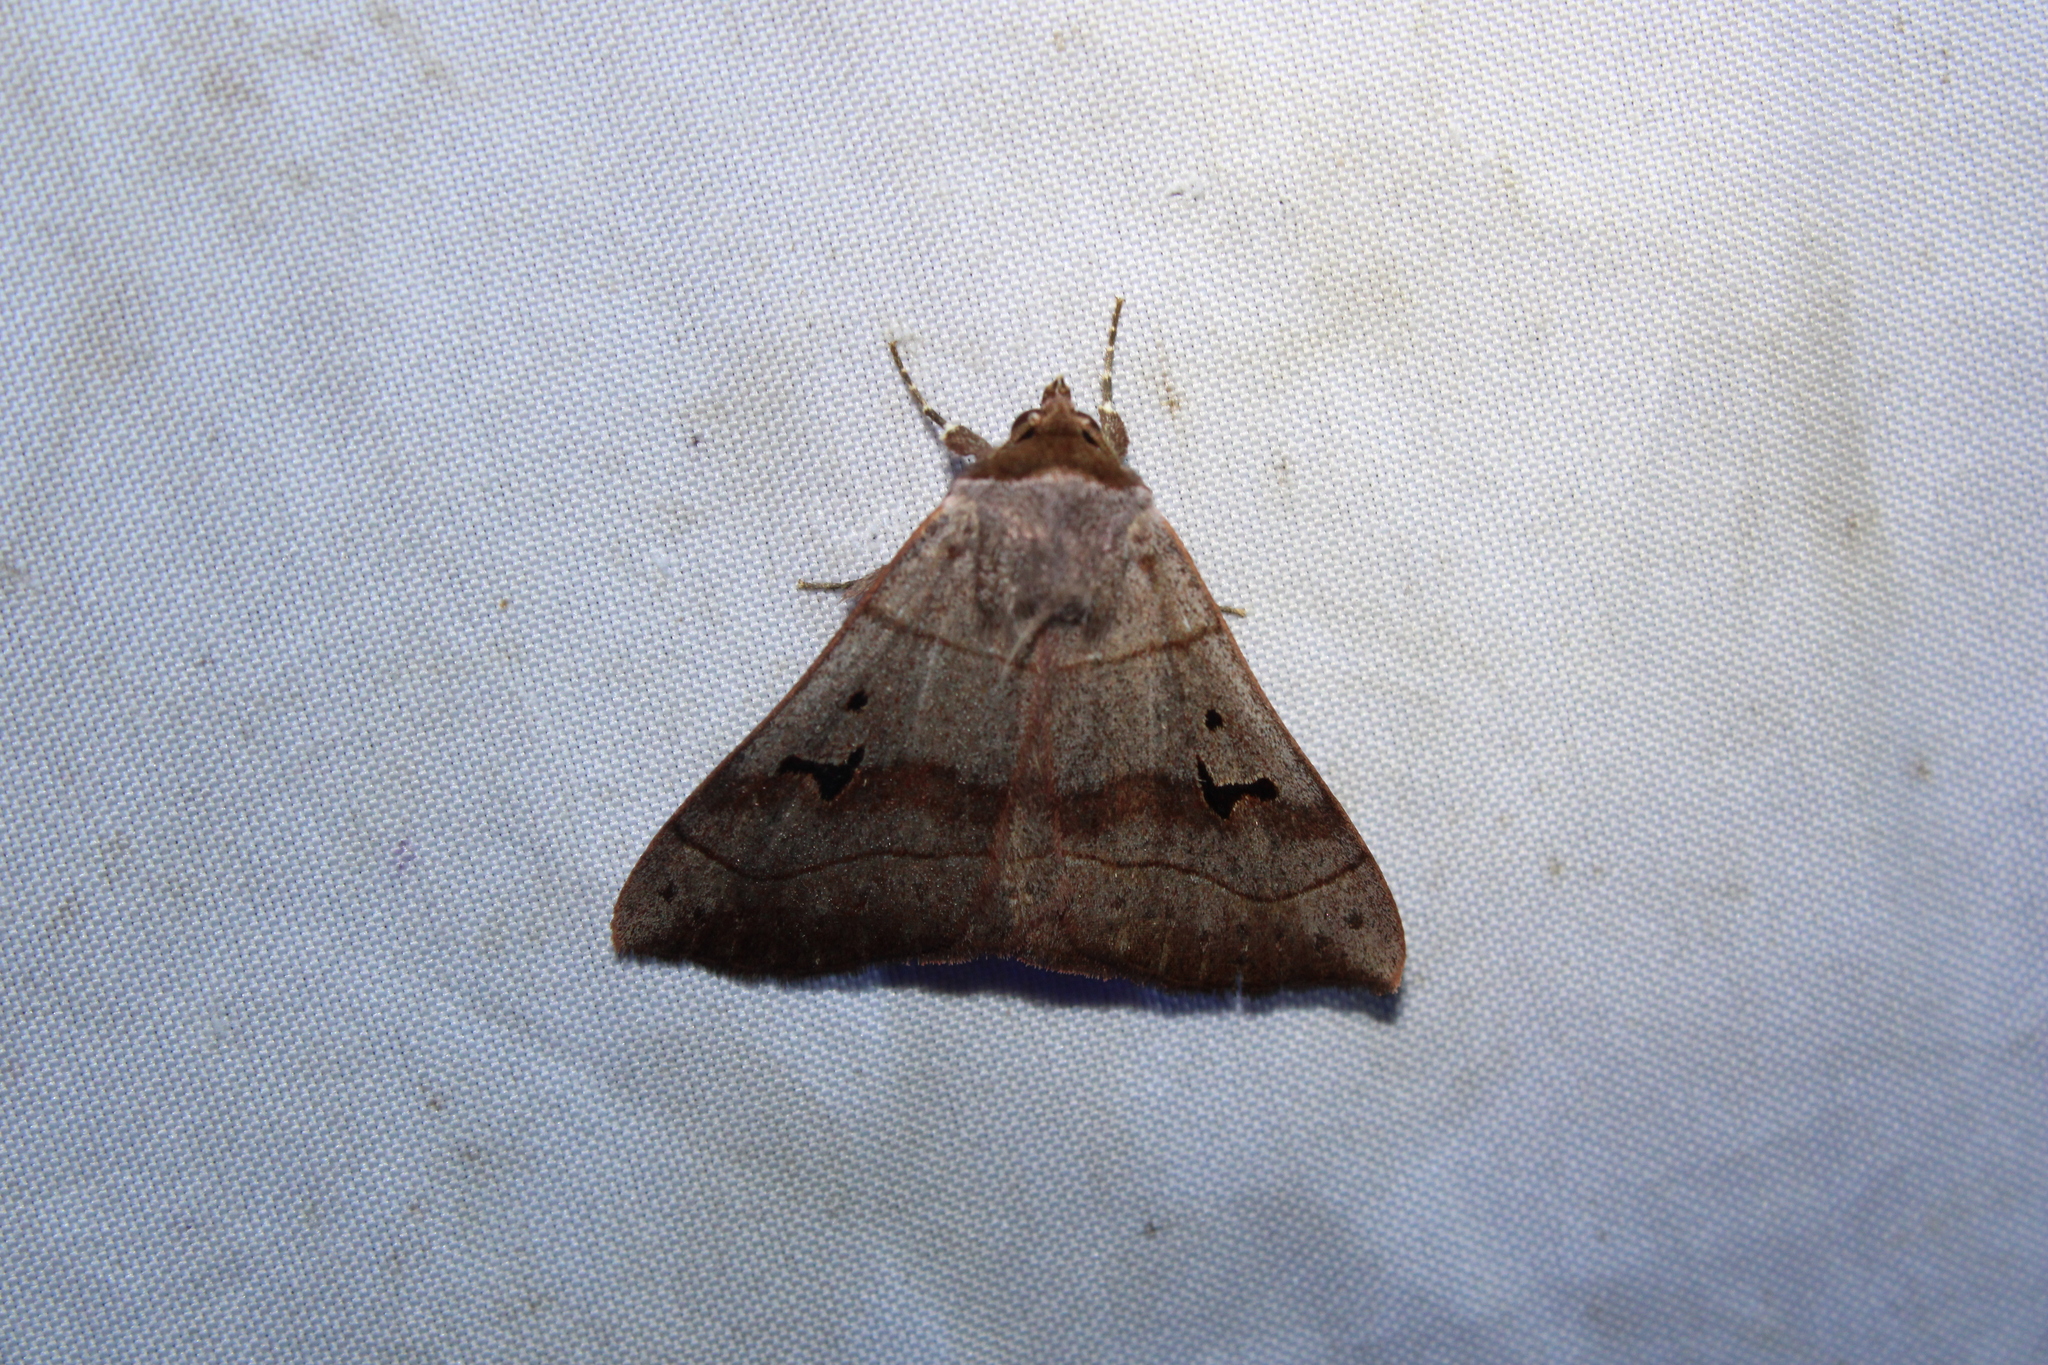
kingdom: Animalia
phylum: Arthropoda
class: Insecta
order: Lepidoptera
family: Erebidae
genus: Panopoda
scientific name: Panopoda carneicosta
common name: Brown panopoda moth
